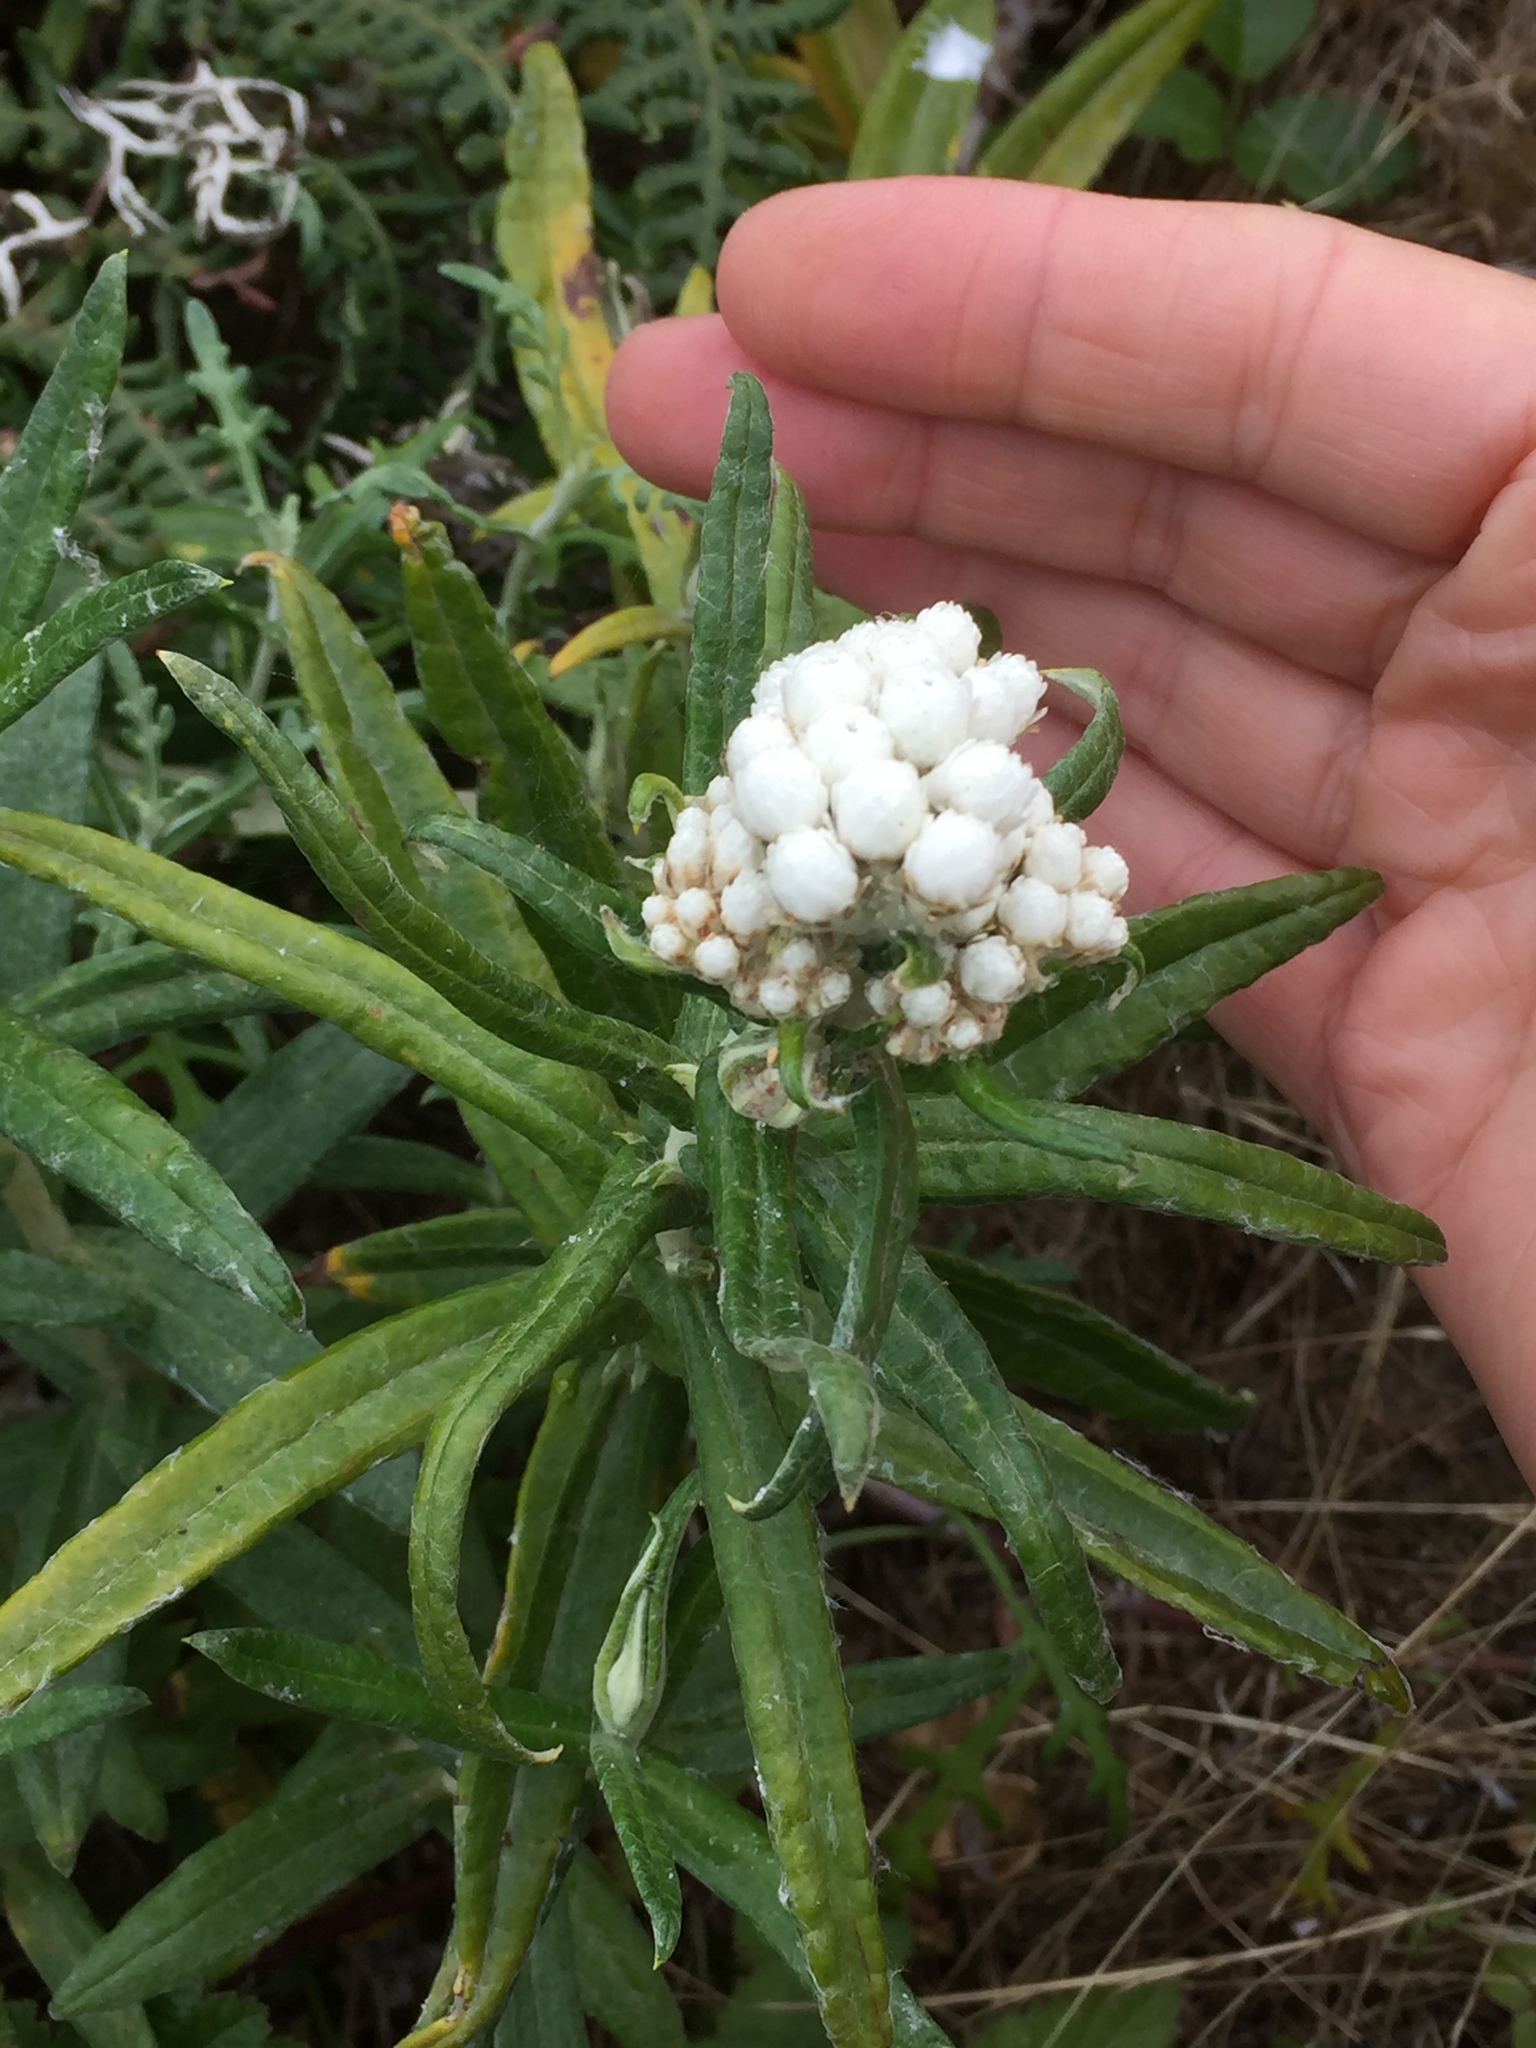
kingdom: Plantae
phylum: Tracheophyta
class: Magnoliopsida
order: Asterales
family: Asteraceae
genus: Anaphalis
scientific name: Anaphalis margaritacea
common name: Pearly everlasting
